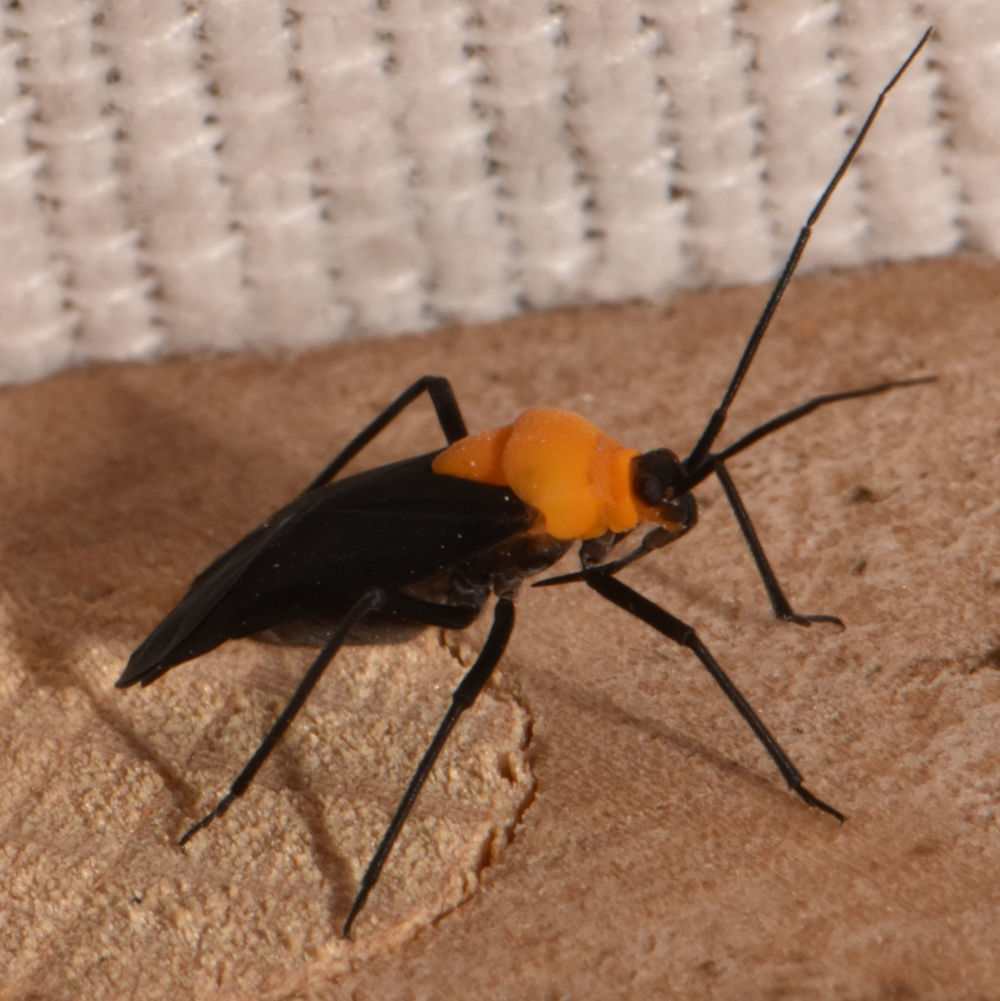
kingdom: Animalia
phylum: Arthropoda
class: Insecta
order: Hemiptera
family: Miridae
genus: Prepops
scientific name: Prepops insitivus
